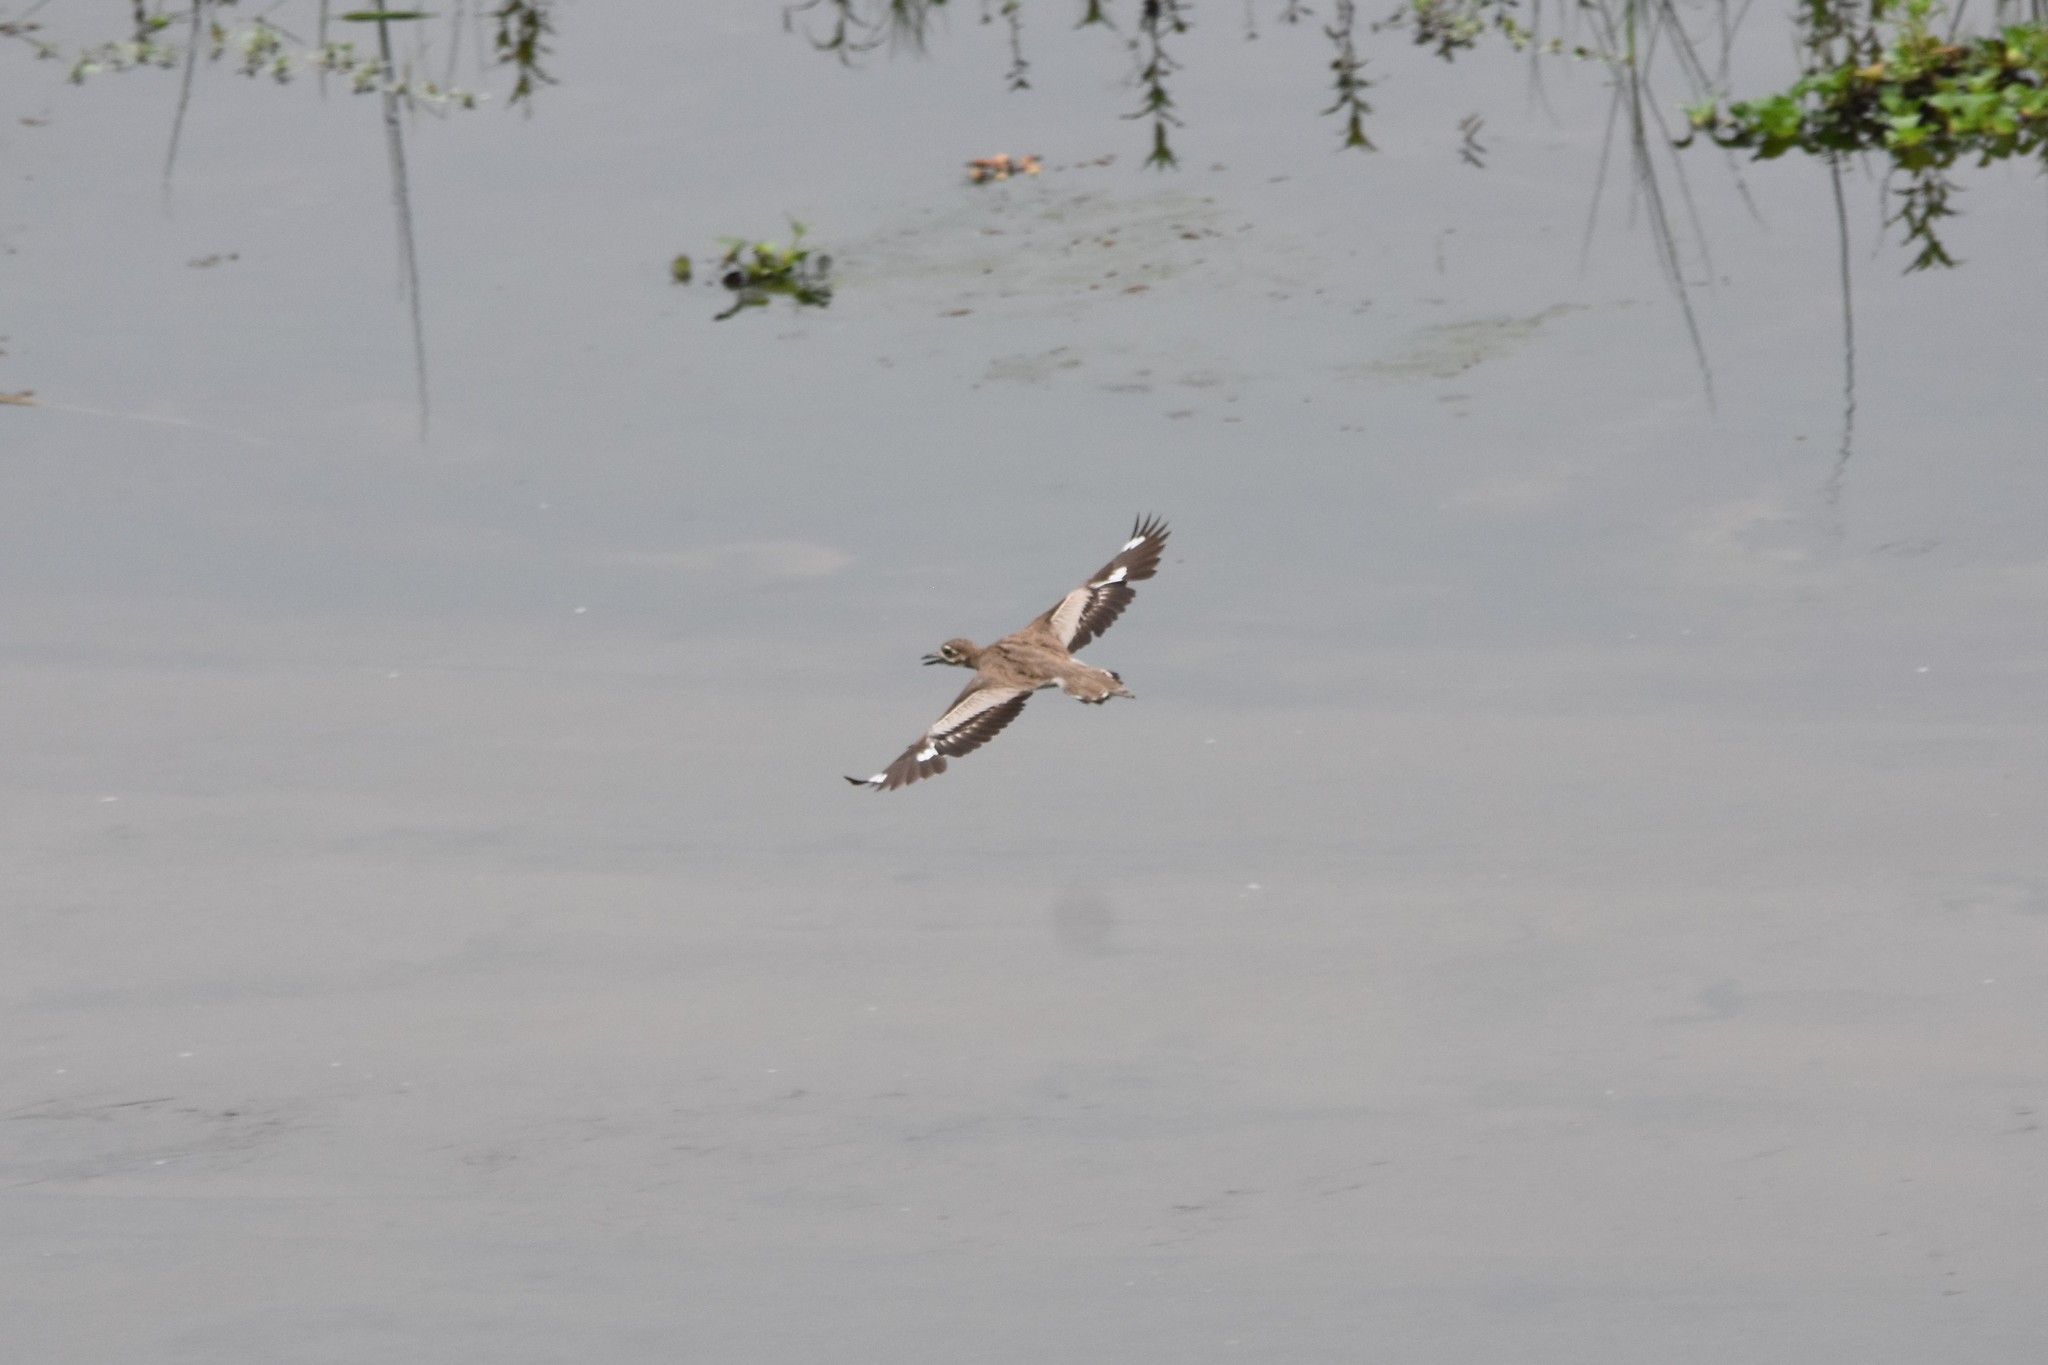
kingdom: Animalia
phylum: Chordata
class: Aves
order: Charadriiformes
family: Burhinidae
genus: Burhinus
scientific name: Burhinus vermiculatus
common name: Water thick-knee
